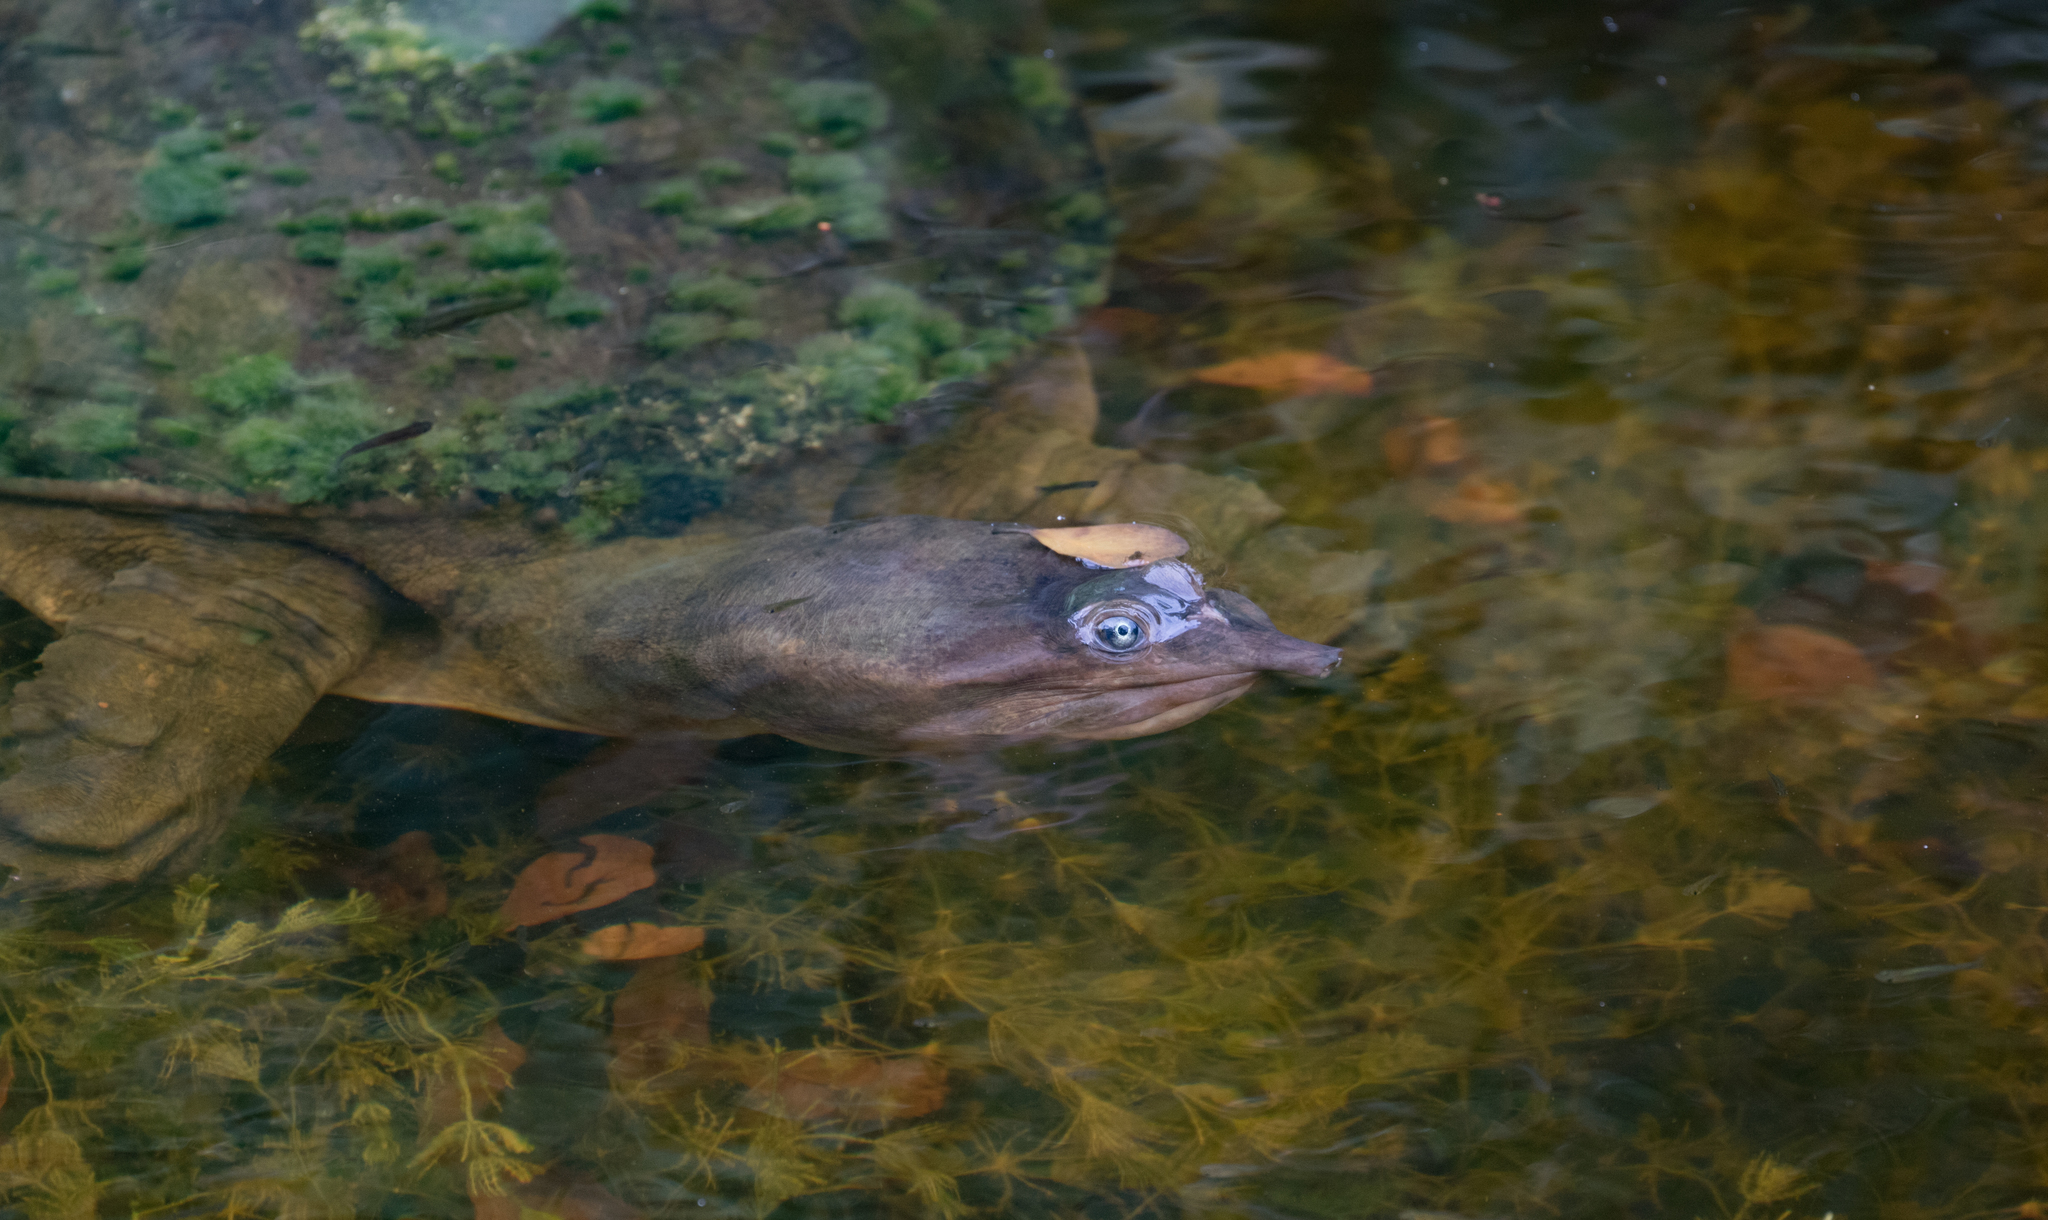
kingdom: Animalia
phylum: Chordata
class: Testudines
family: Trionychidae
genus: Apalone
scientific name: Apalone ferox
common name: Florida softshell turtle
